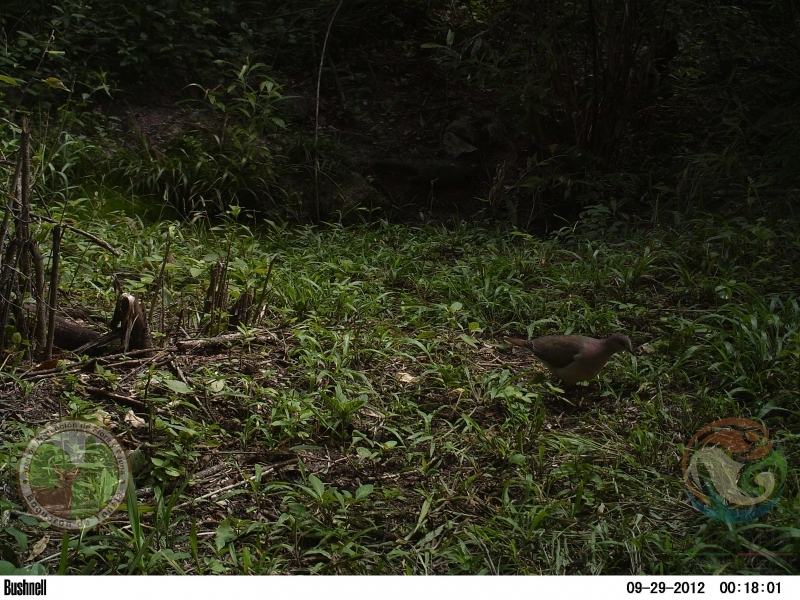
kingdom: Animalia
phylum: Chordata
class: Aves
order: Columbiformes
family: Columbidae
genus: Leptotila
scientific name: Leptotila verreauxi
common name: White-tipped dove
